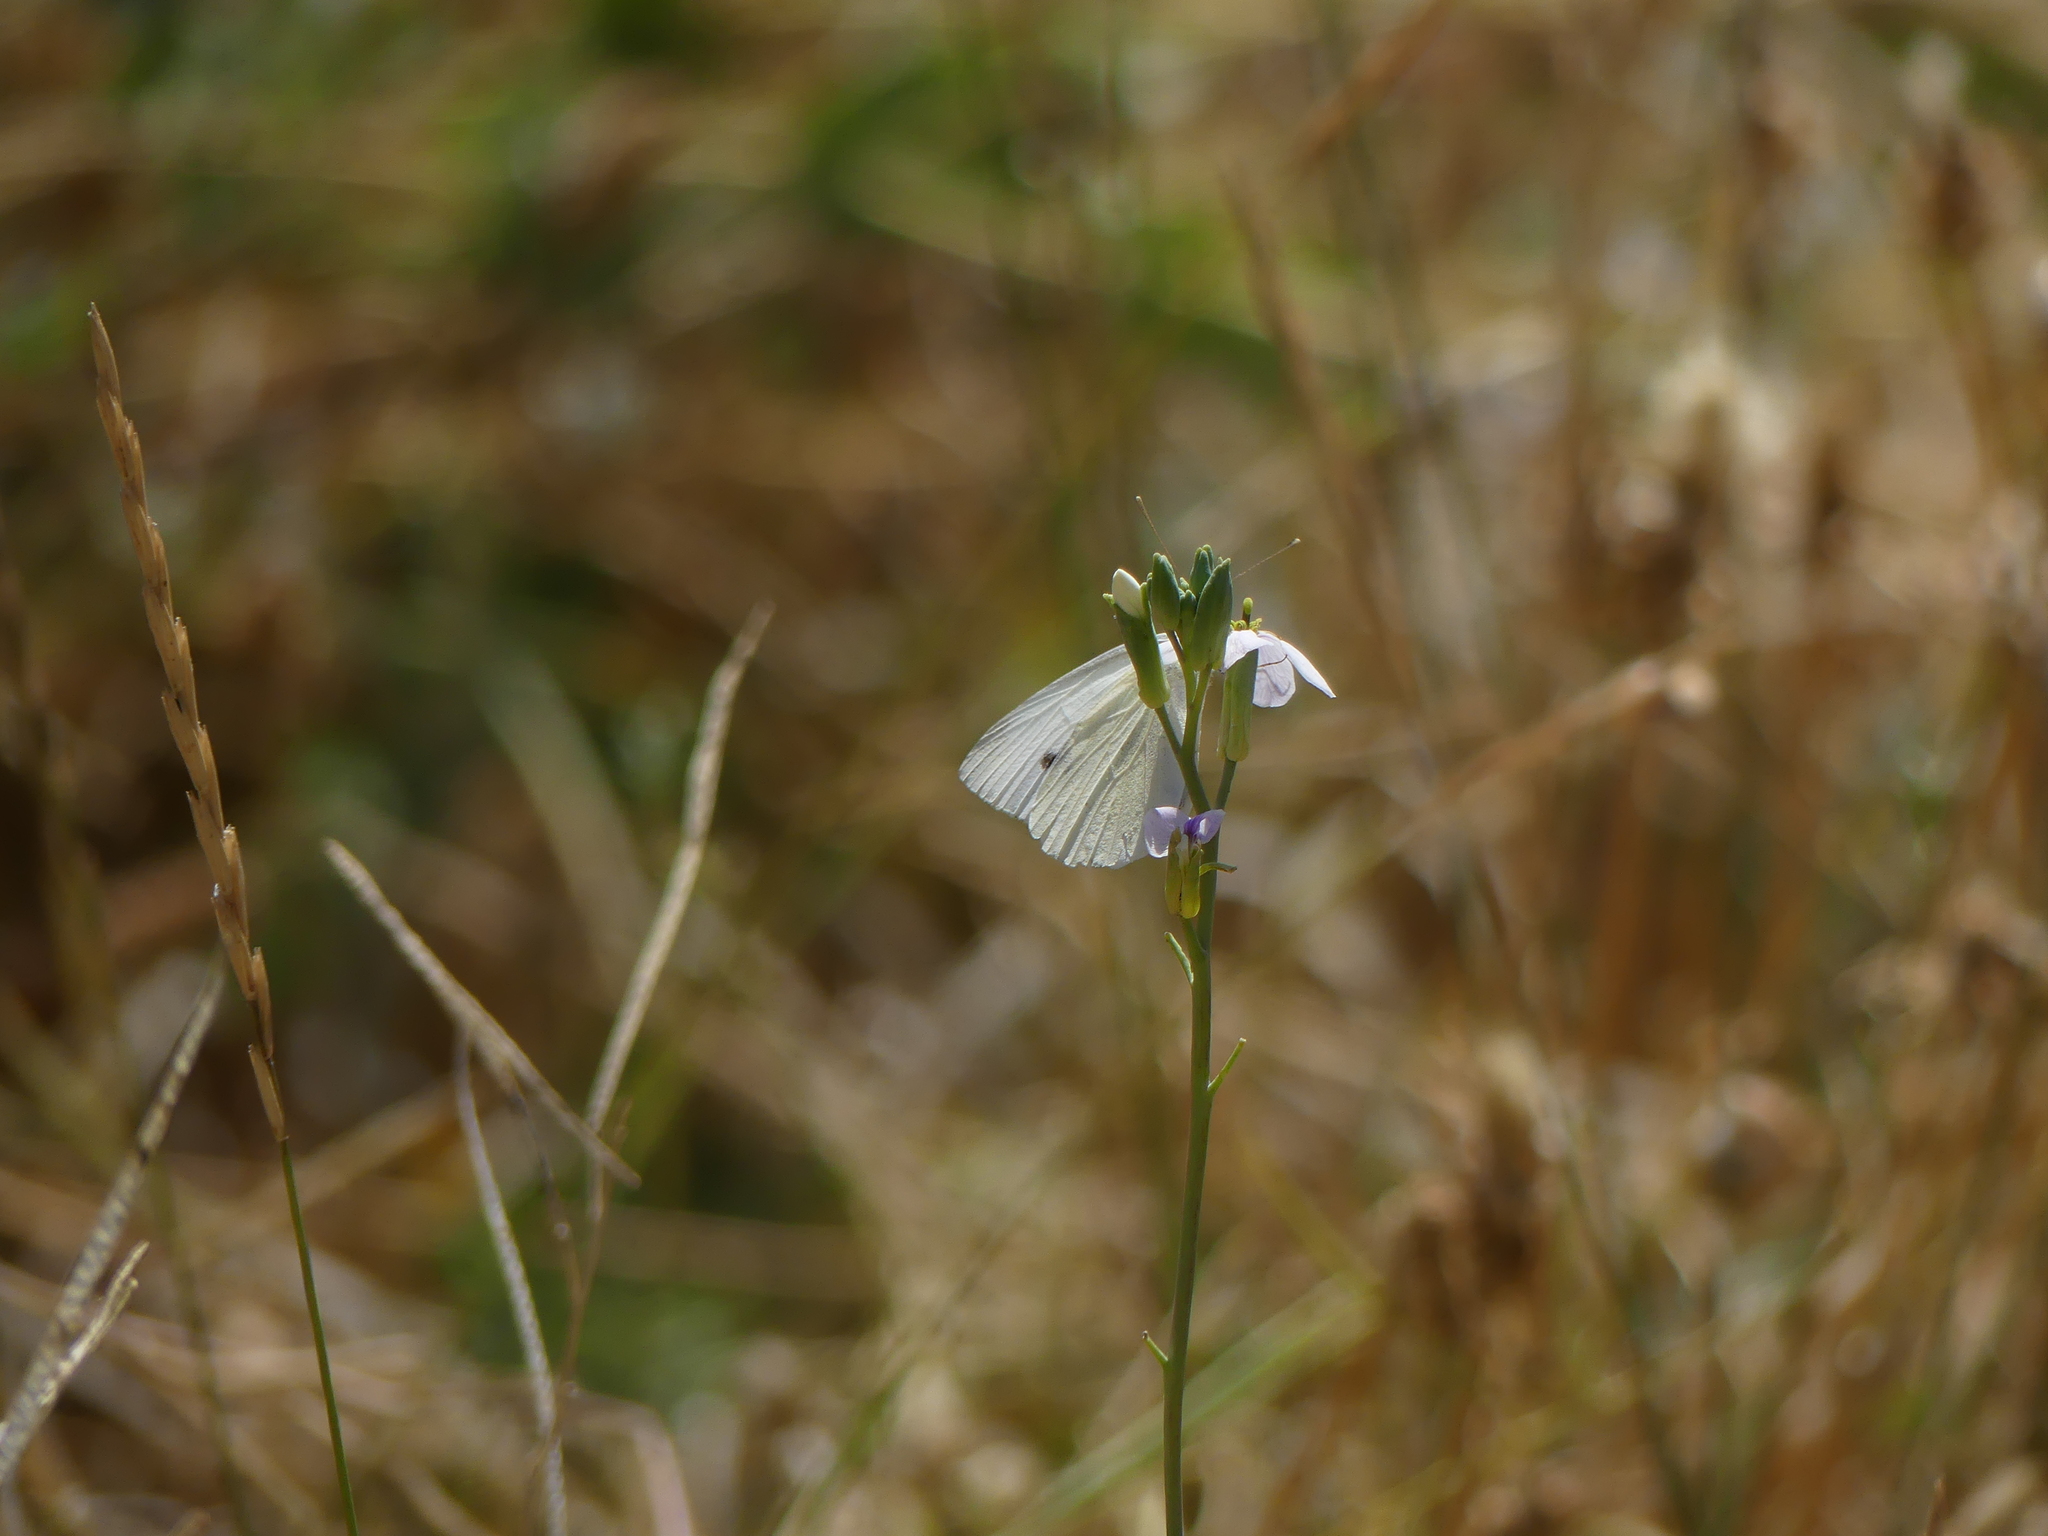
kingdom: Animalia
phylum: Arthropoda
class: Insecta
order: Lepidoptera
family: Pieridae
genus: Pieris
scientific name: Pieris rapae
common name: Small white
